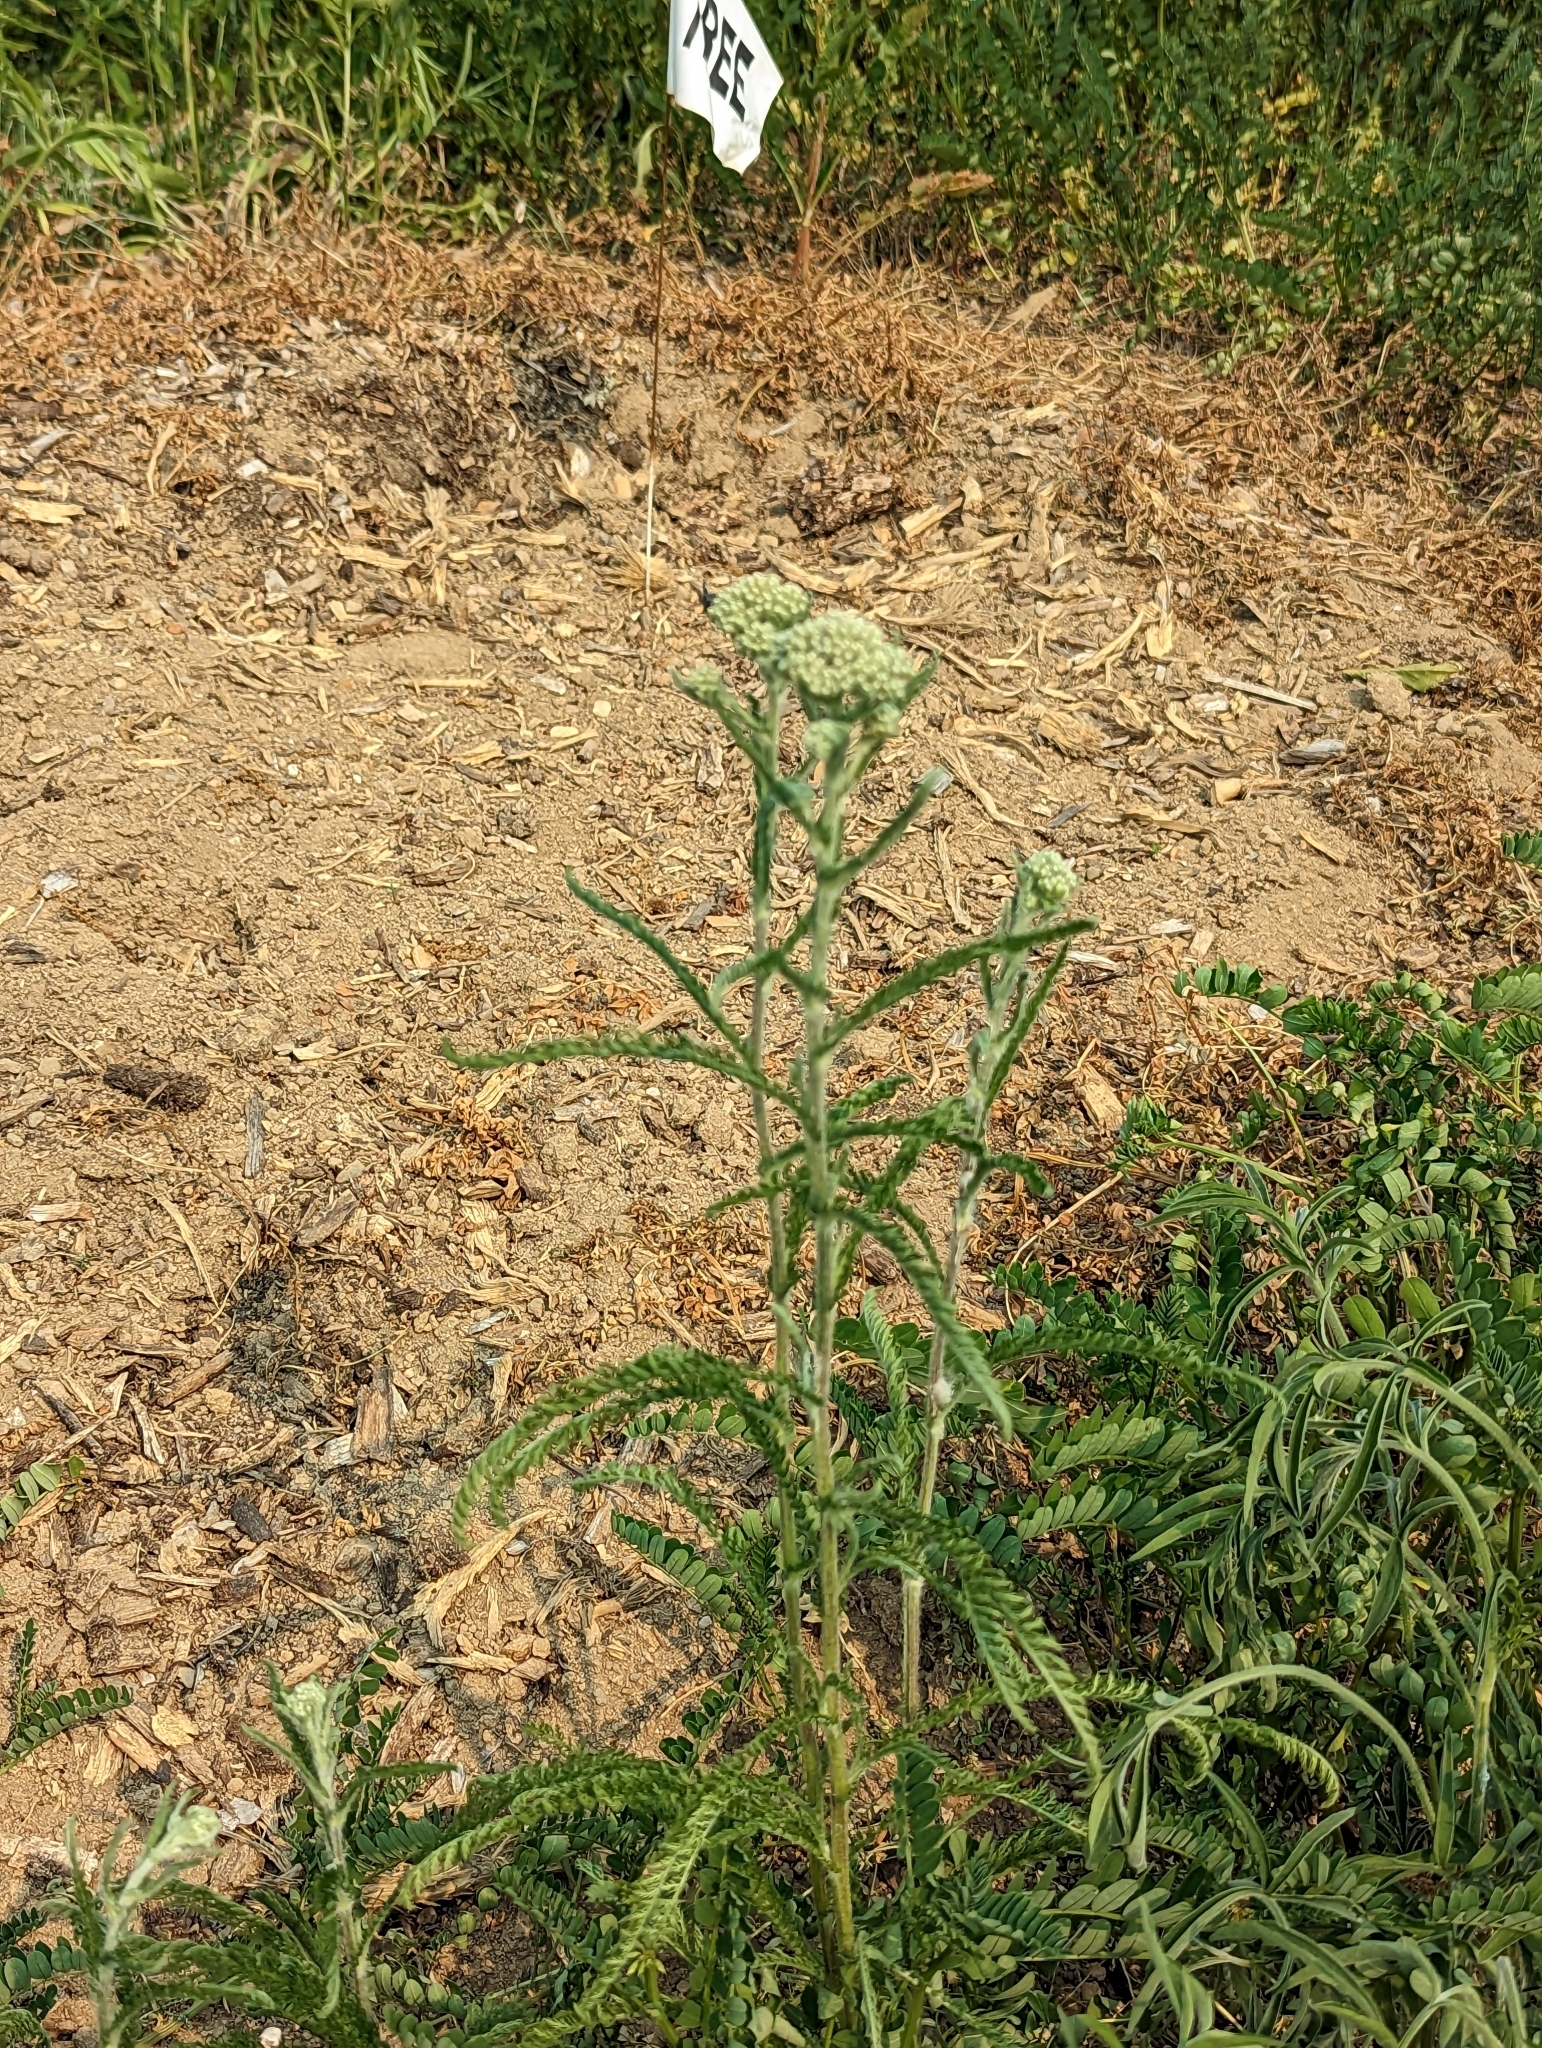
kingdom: Plantae
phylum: Tracheophyta
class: Magnoliopsida
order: Asterales
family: Asteraceae
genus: Achillea
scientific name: Achillea millefolium
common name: Yarrow
